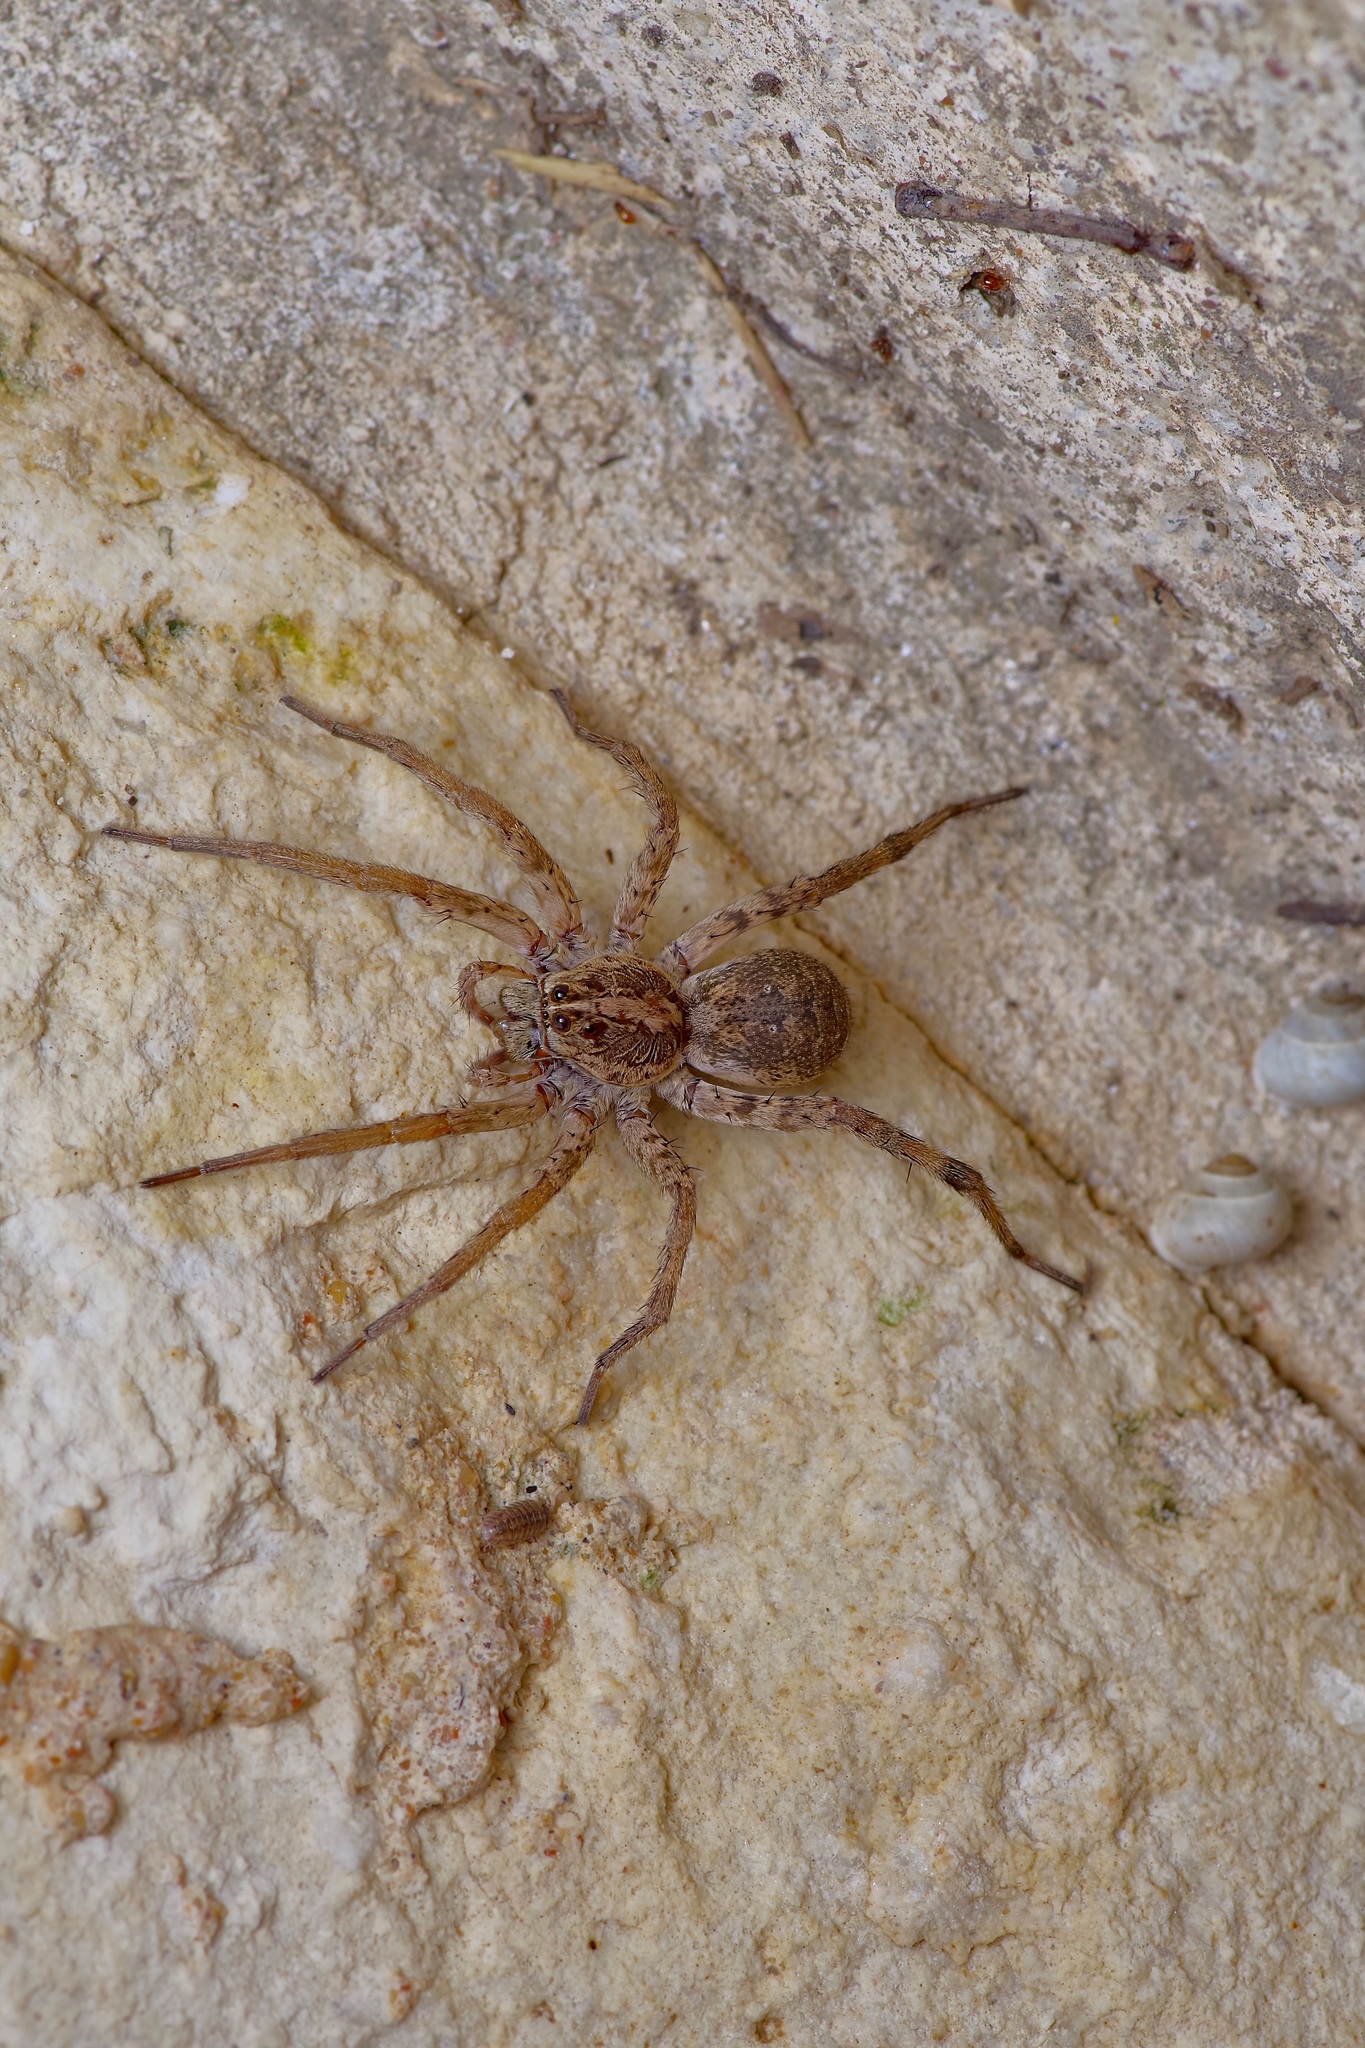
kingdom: Animalia
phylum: Arthropoda
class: Arachnida
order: Araneae
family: Lycosidae
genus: Hogna
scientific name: Hogna antelucana
